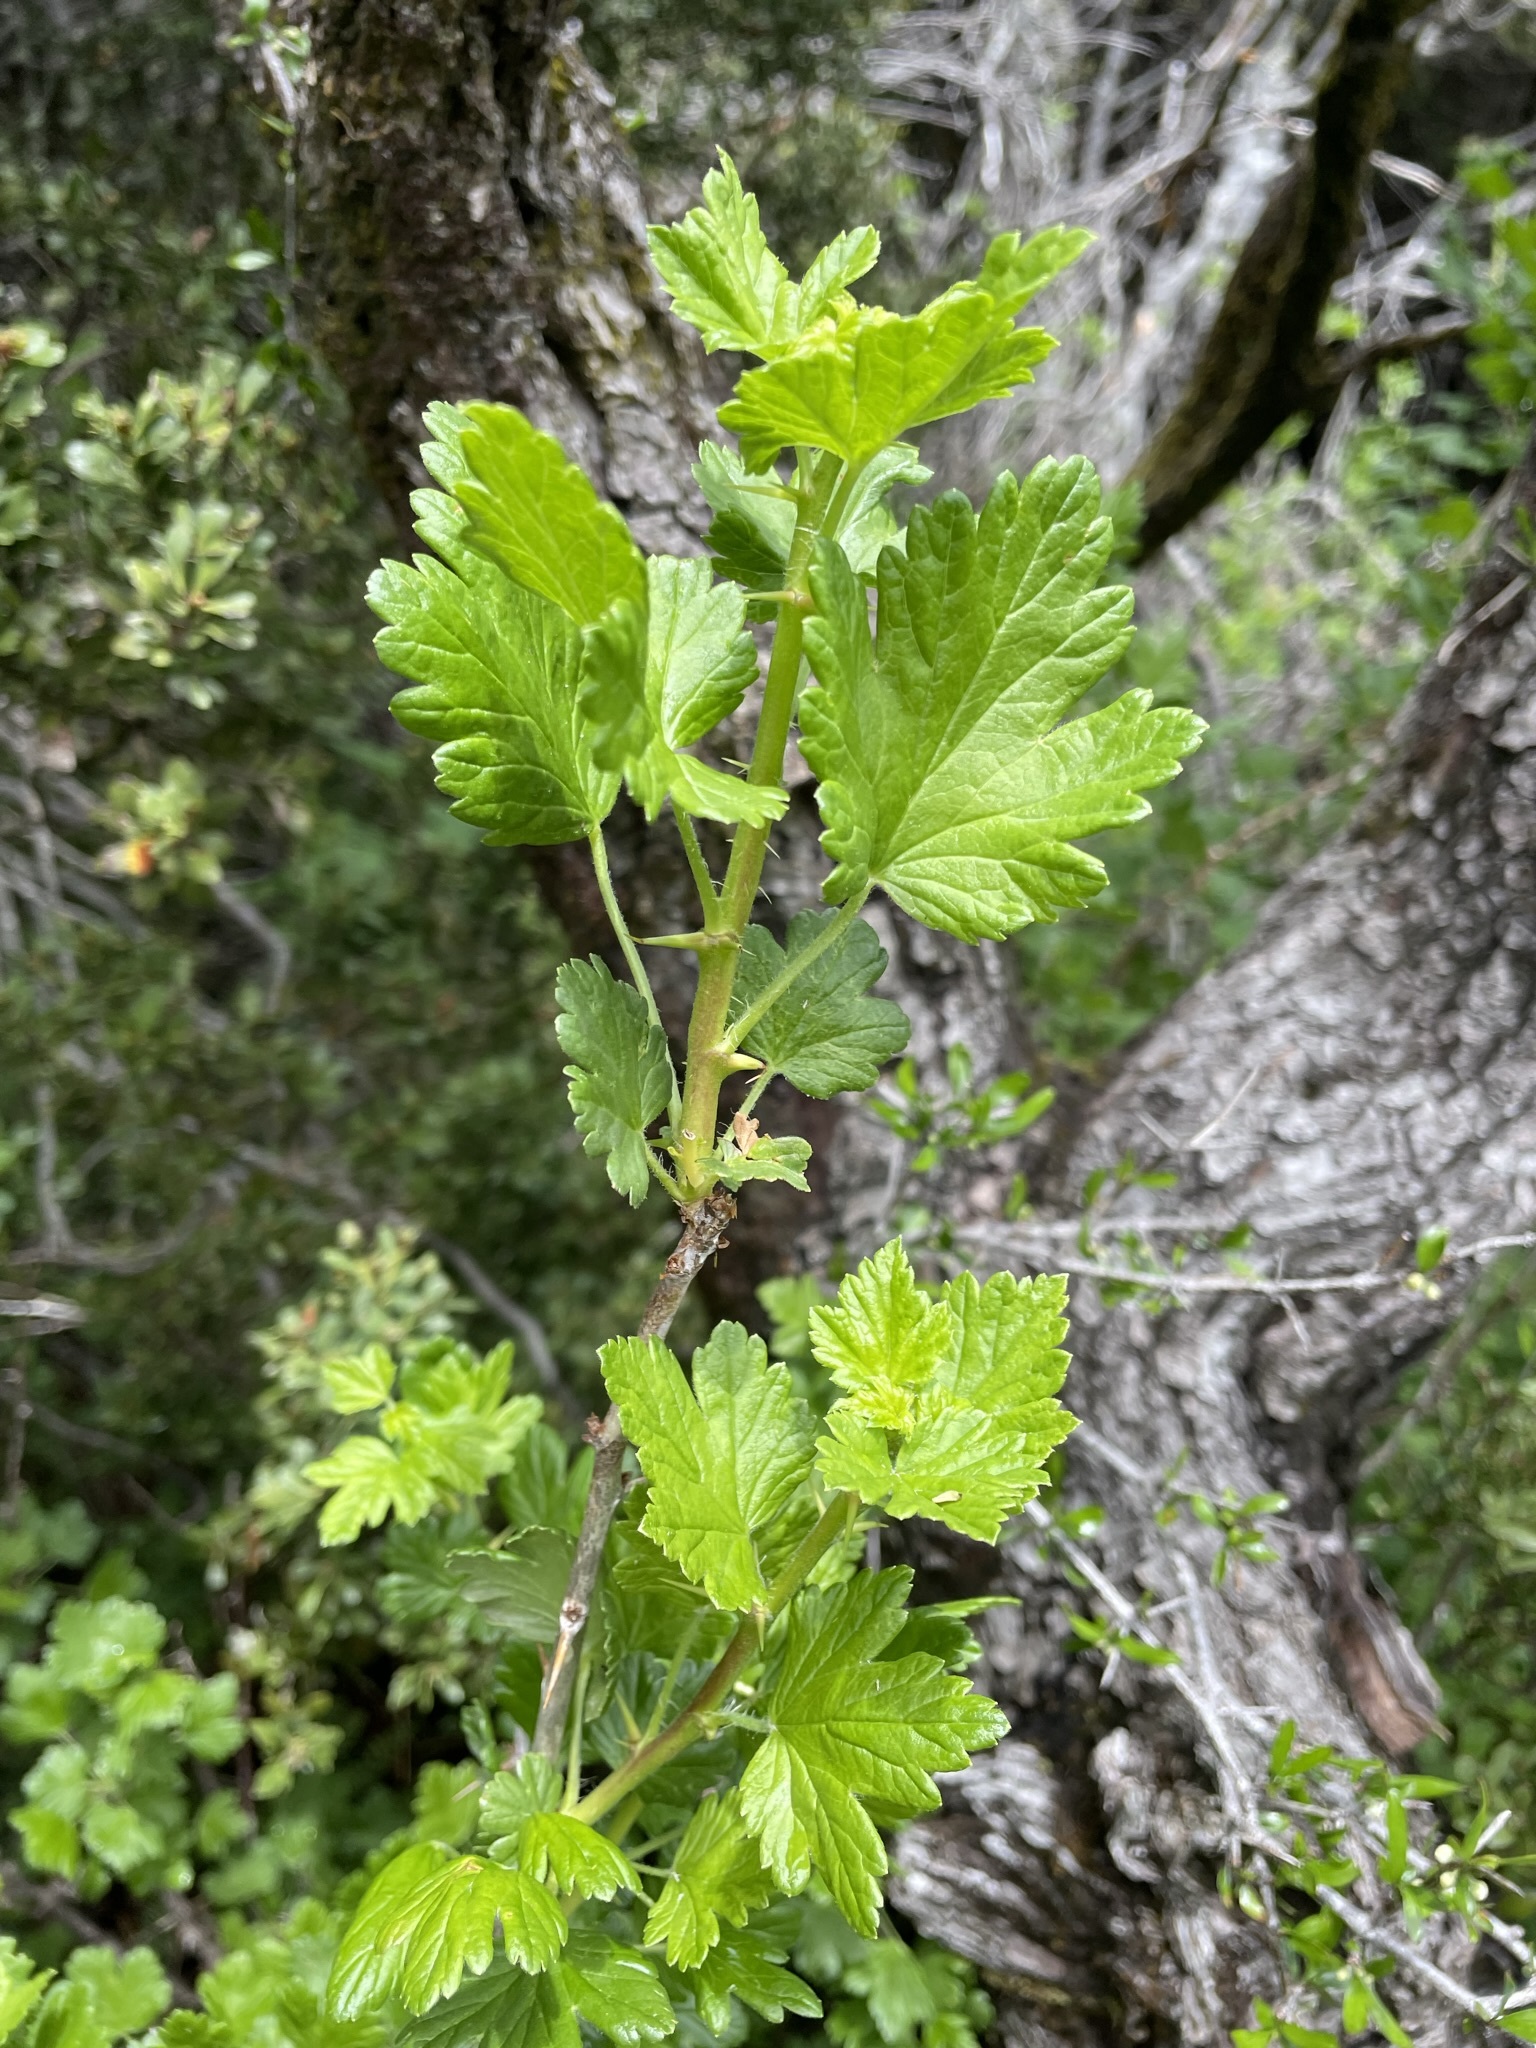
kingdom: Plantae
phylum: Tracheophyta
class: Magnoliopsida
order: Saxifragales
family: Grossulariaceae
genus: Ribes
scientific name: Ribes uva-crispa
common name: Gooseberry
